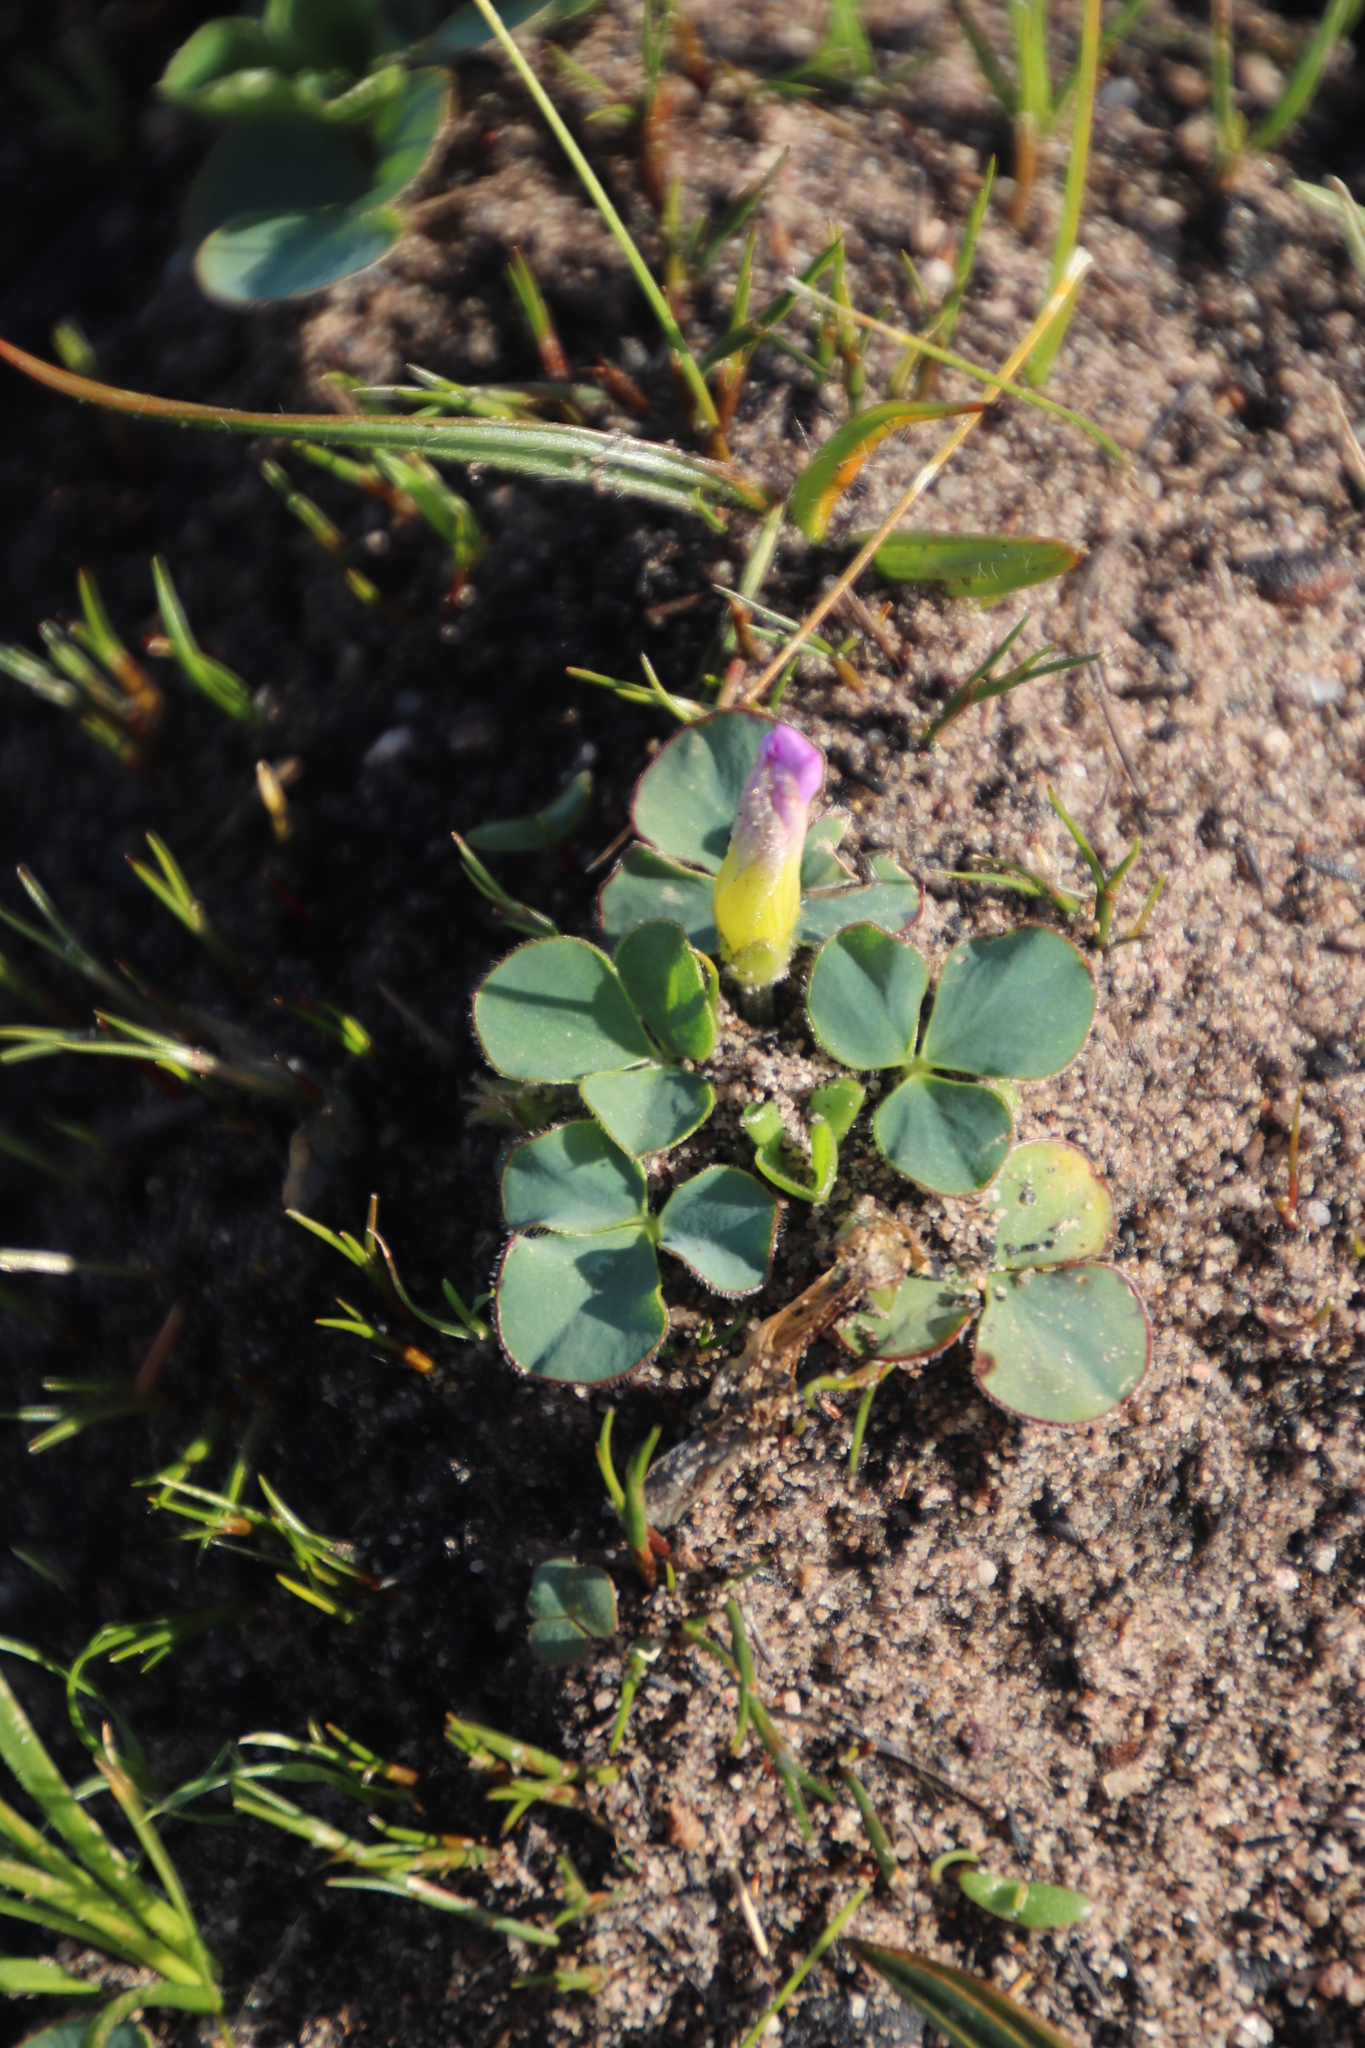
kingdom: Plantae
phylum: Tracheophyta
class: Magnoliopsida
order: Oxalidales
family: Oxalidaceae
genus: Oxalis
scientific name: Oxalis purpurea
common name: Purple woodsorrel
